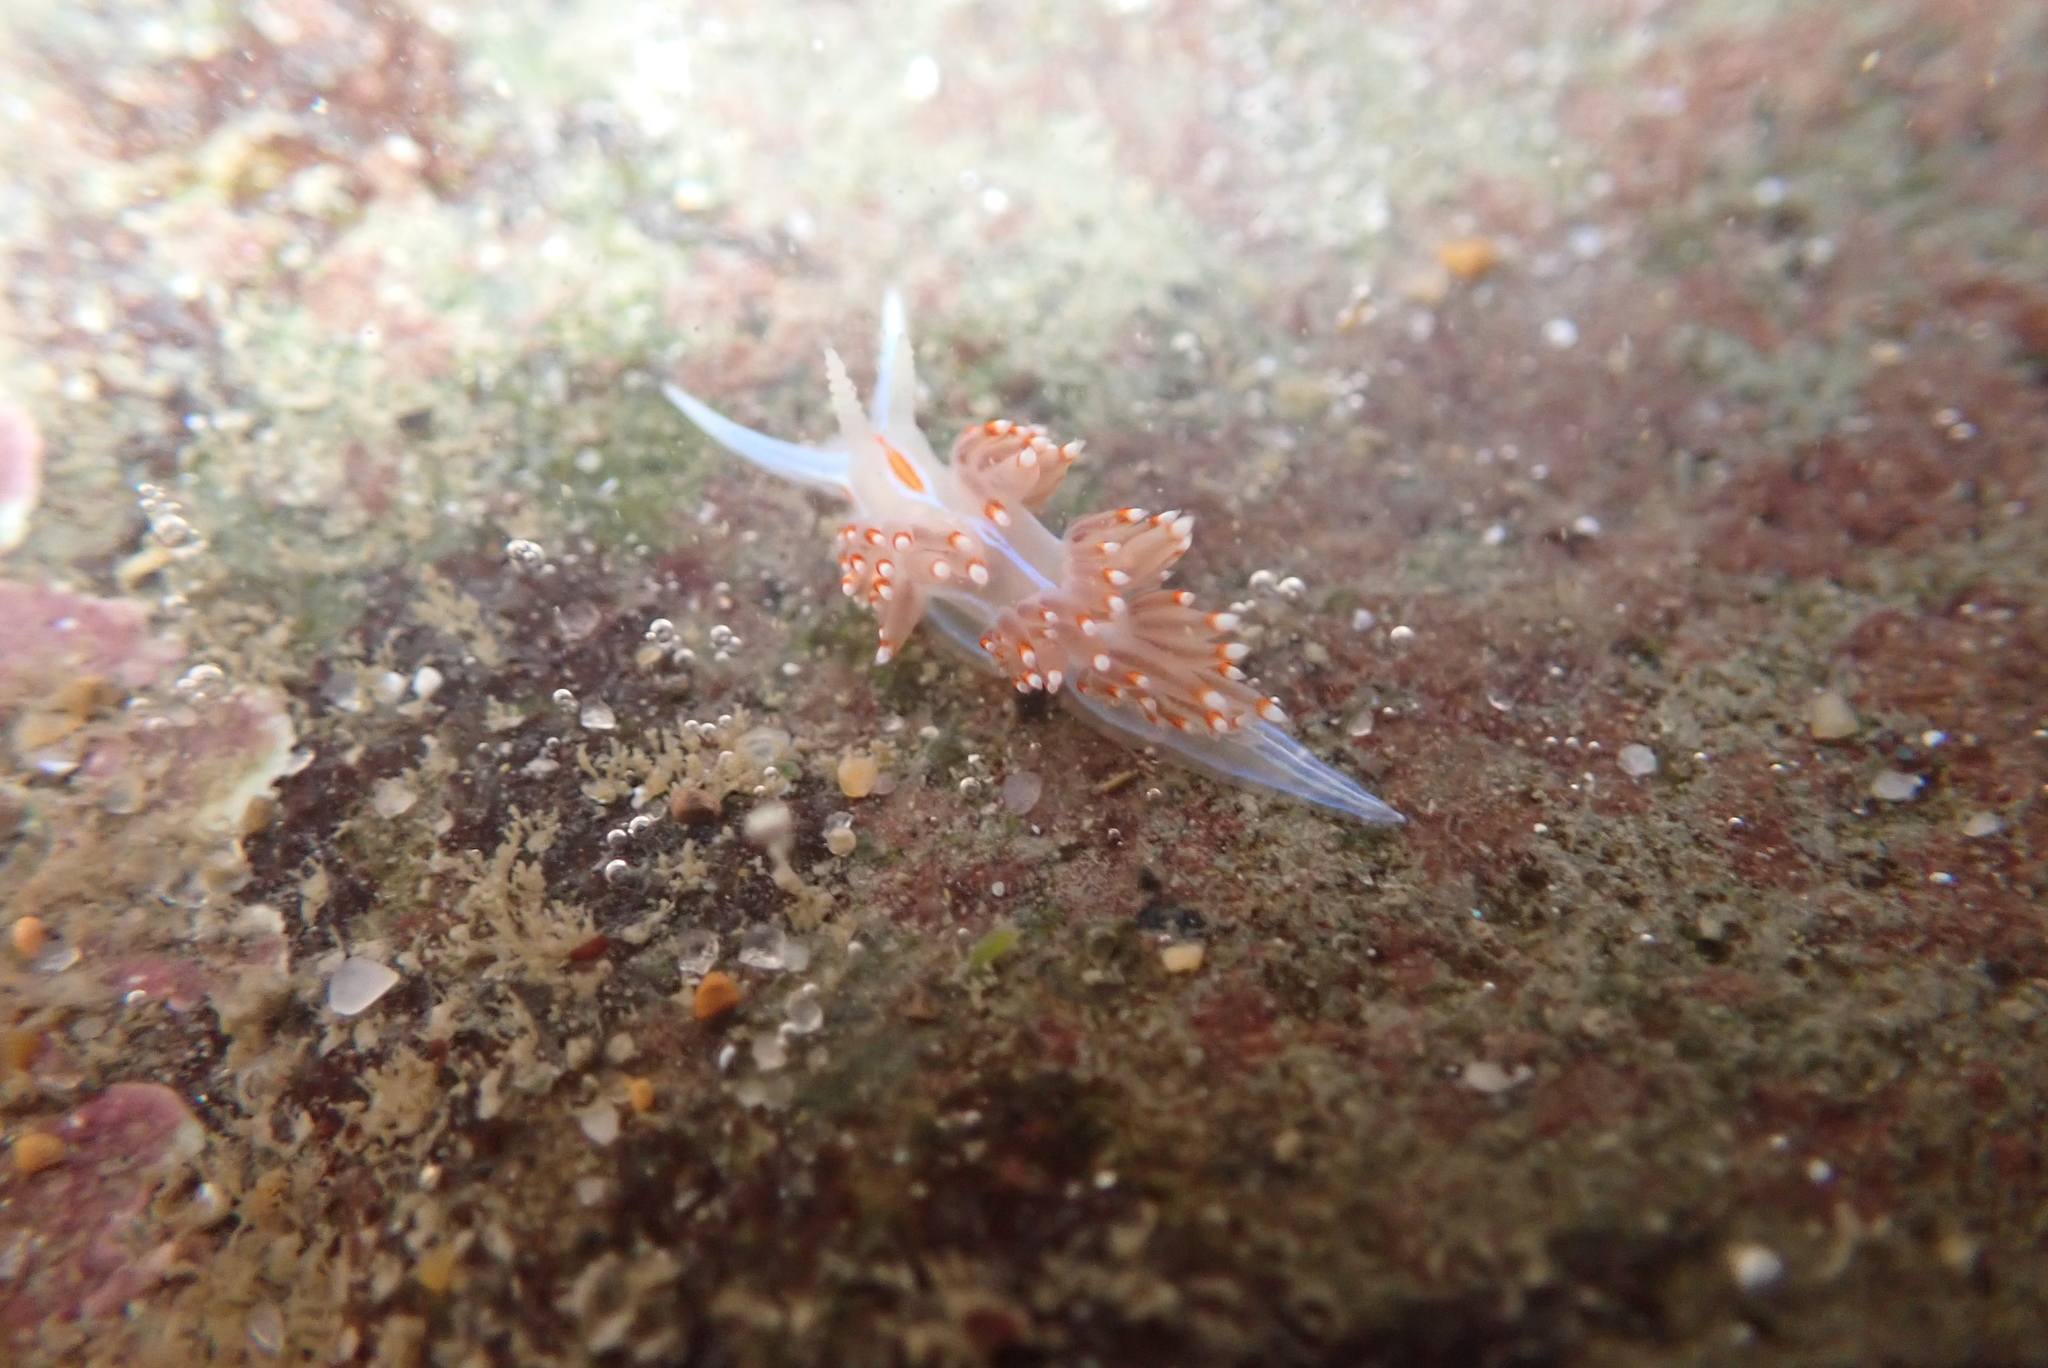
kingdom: Animalia
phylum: Mollusca
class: Gastropoda
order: Nudibranchia
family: Myrrhinidae
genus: Hermissenda
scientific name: Hermissenda opalescens
